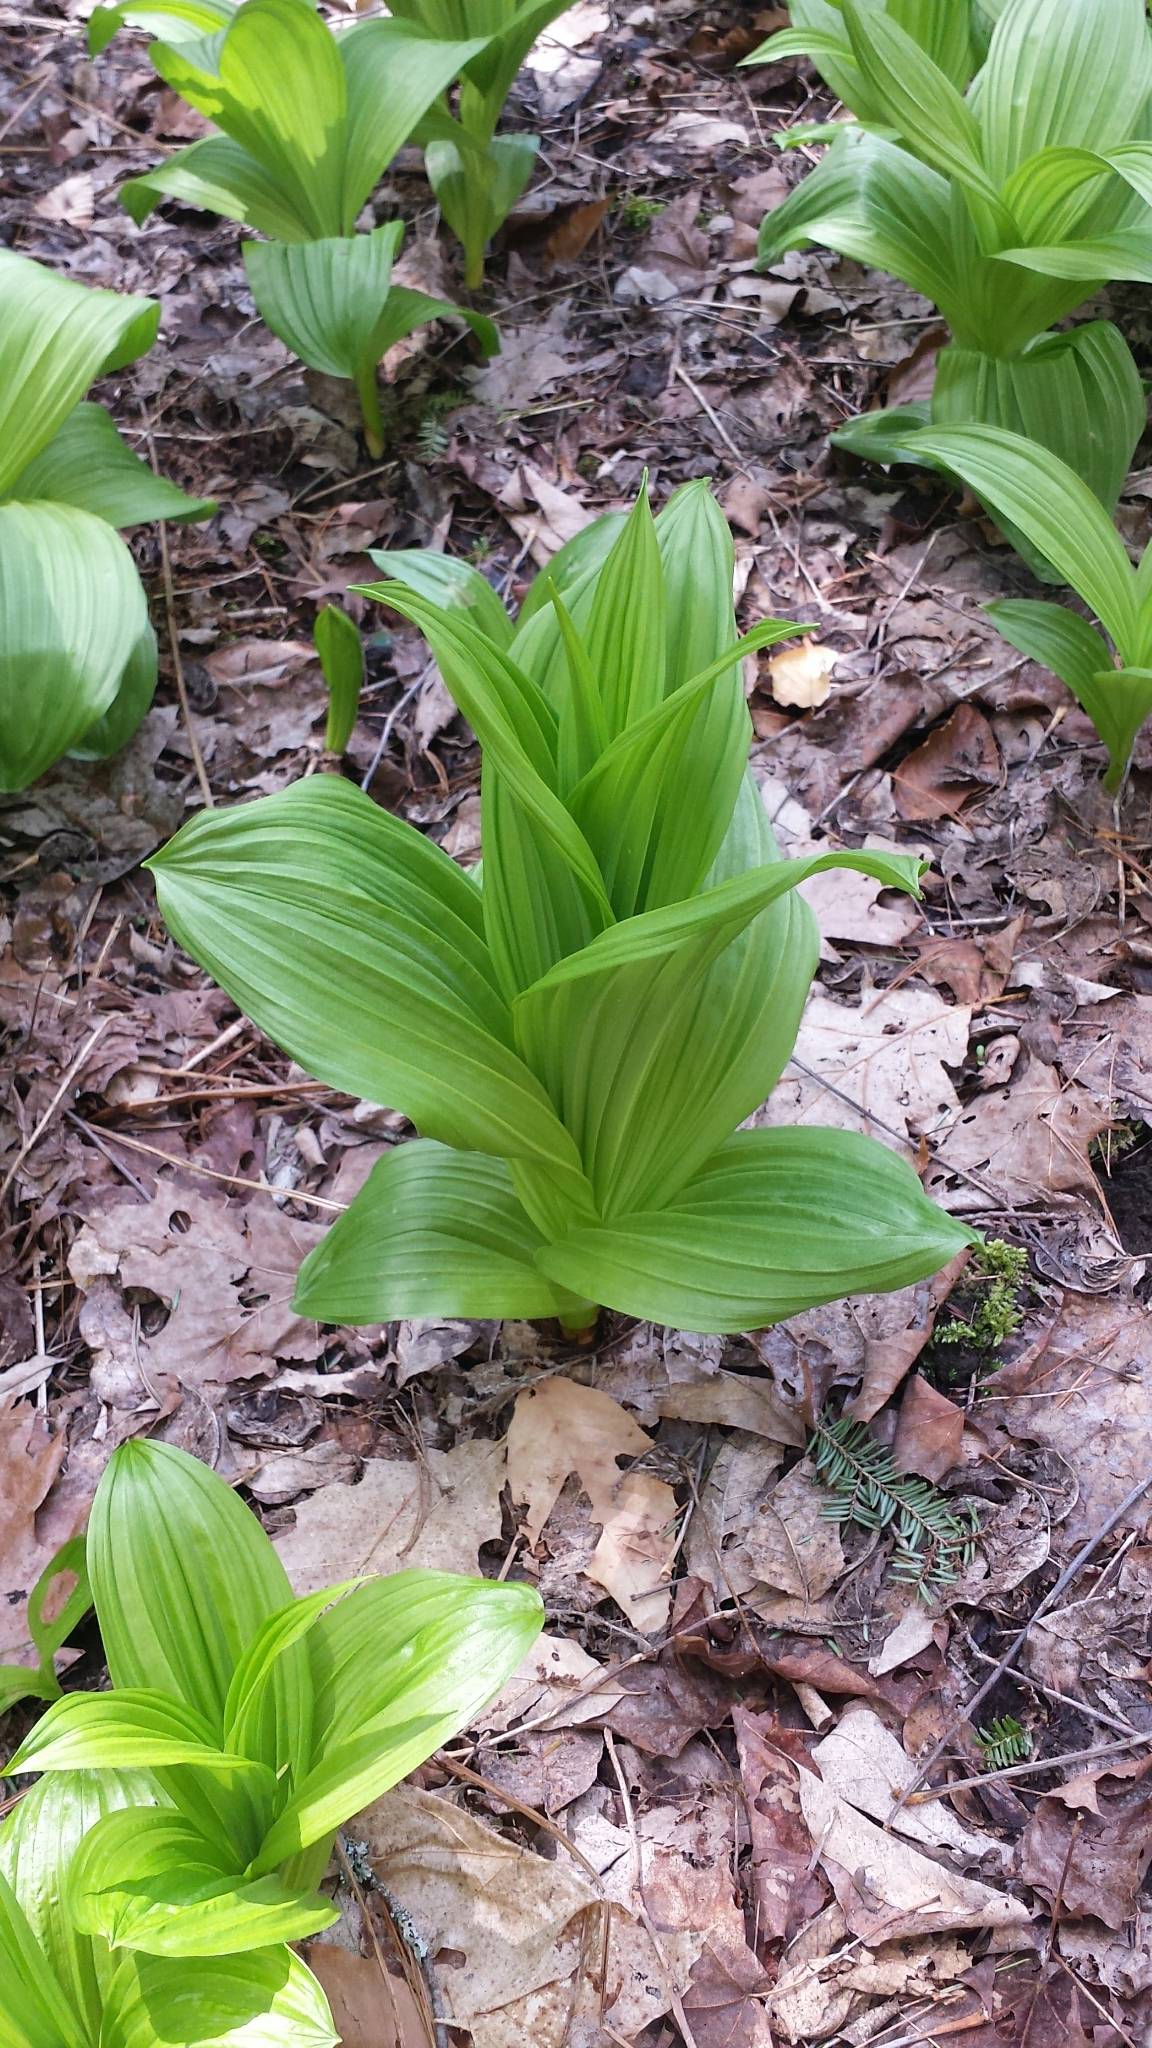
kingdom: Plantae
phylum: Tracheophyta
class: Liliopsida
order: Liliales
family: Melanthiaceae
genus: Veratrum
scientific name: Veratrum viride
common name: American false hellebore
